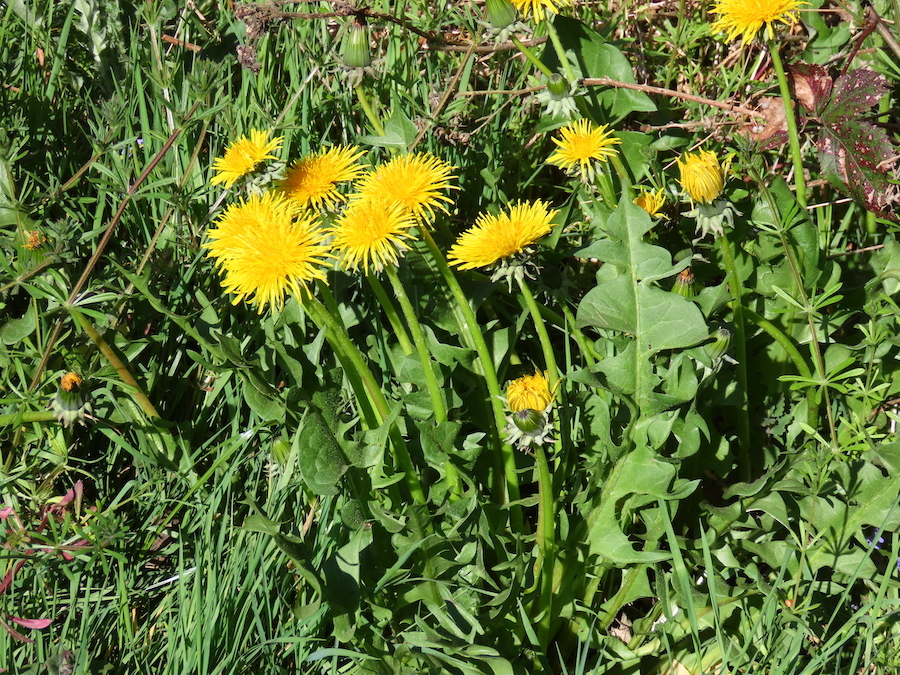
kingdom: Plantae
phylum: Tracheophyta
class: Magnoliopsida
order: Asterales
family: Asteraceae
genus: Taraxacum
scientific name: Taraxacum officinale
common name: Common dandelion
